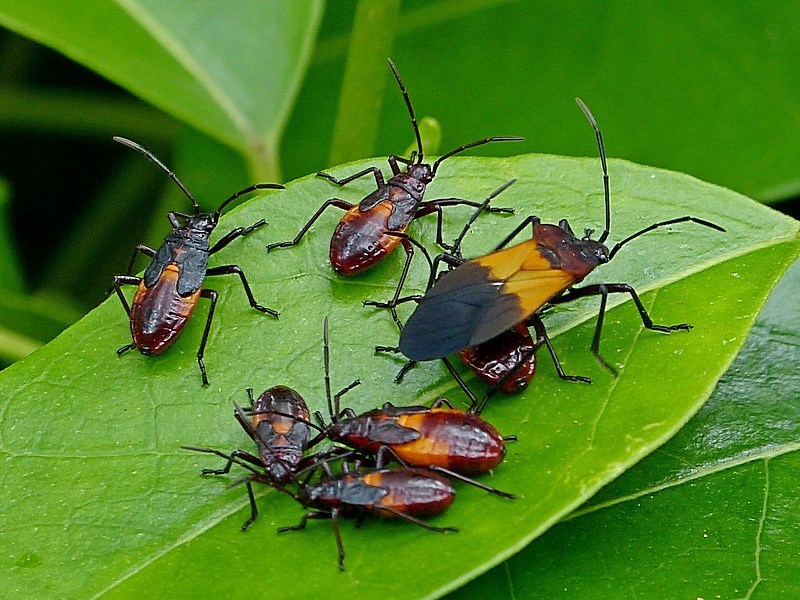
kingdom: Animalia
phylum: Arthropoda
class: Insecta
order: Hemiptera
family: Lygaeidae
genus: Oncopeltus
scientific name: Oncopeltus sordidus
